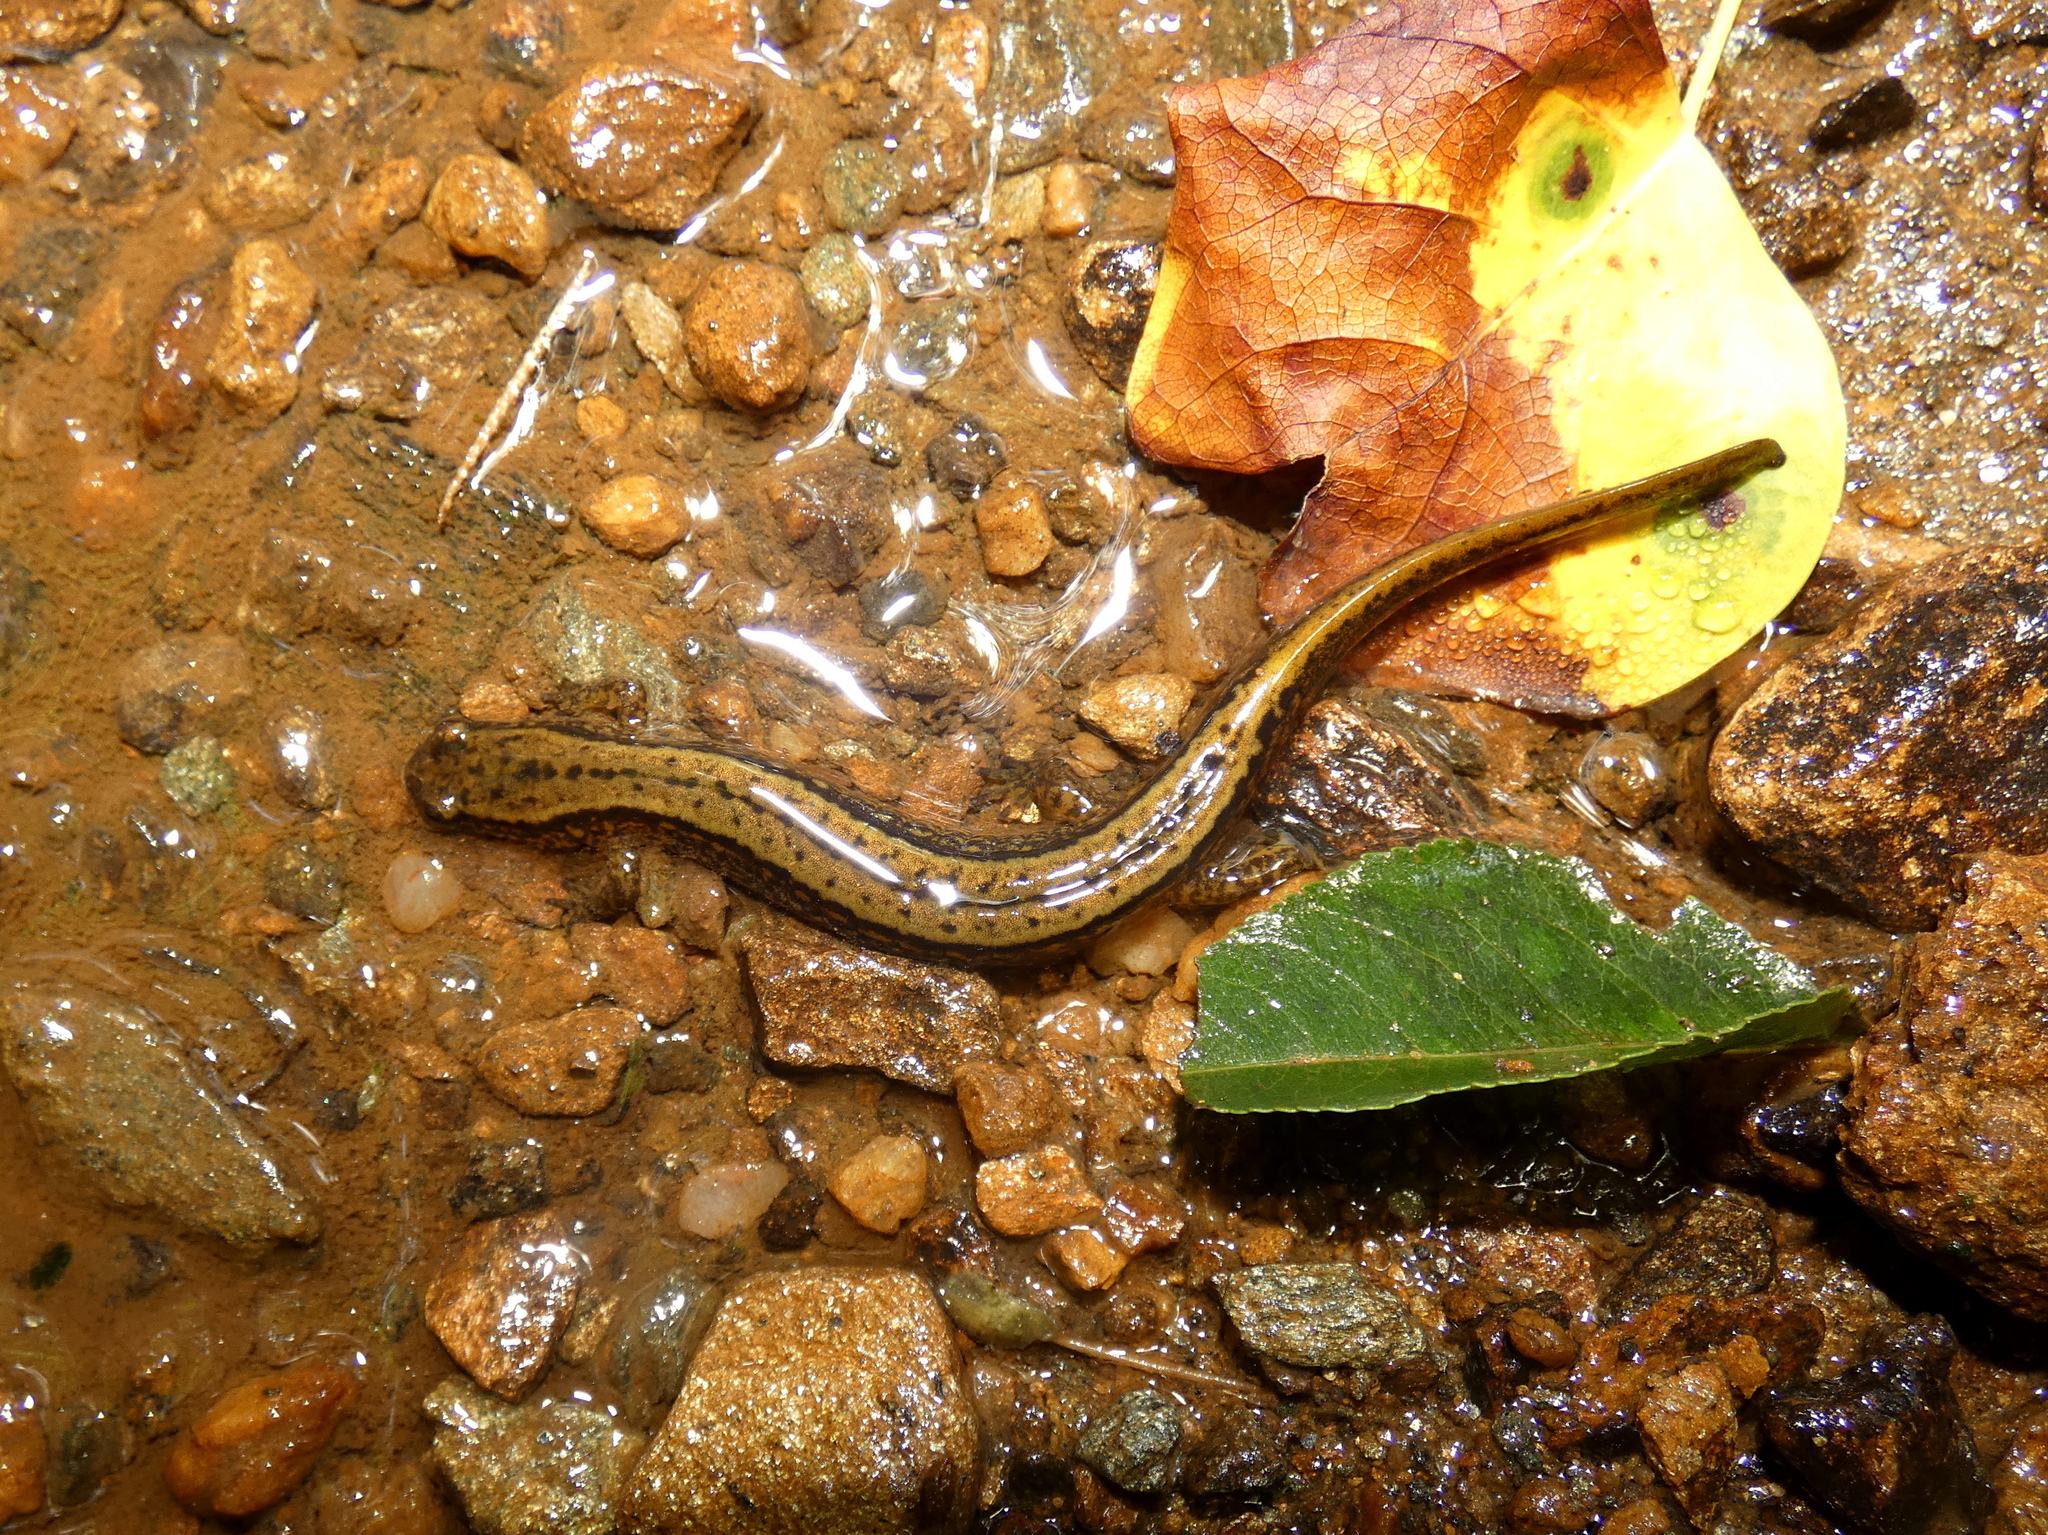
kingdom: Animalia
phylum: Chordata
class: Amphibia
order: Caudata
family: Plethodontidae
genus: Eurycea
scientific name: Eurycea bislineata
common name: Northern two-lined salamander
